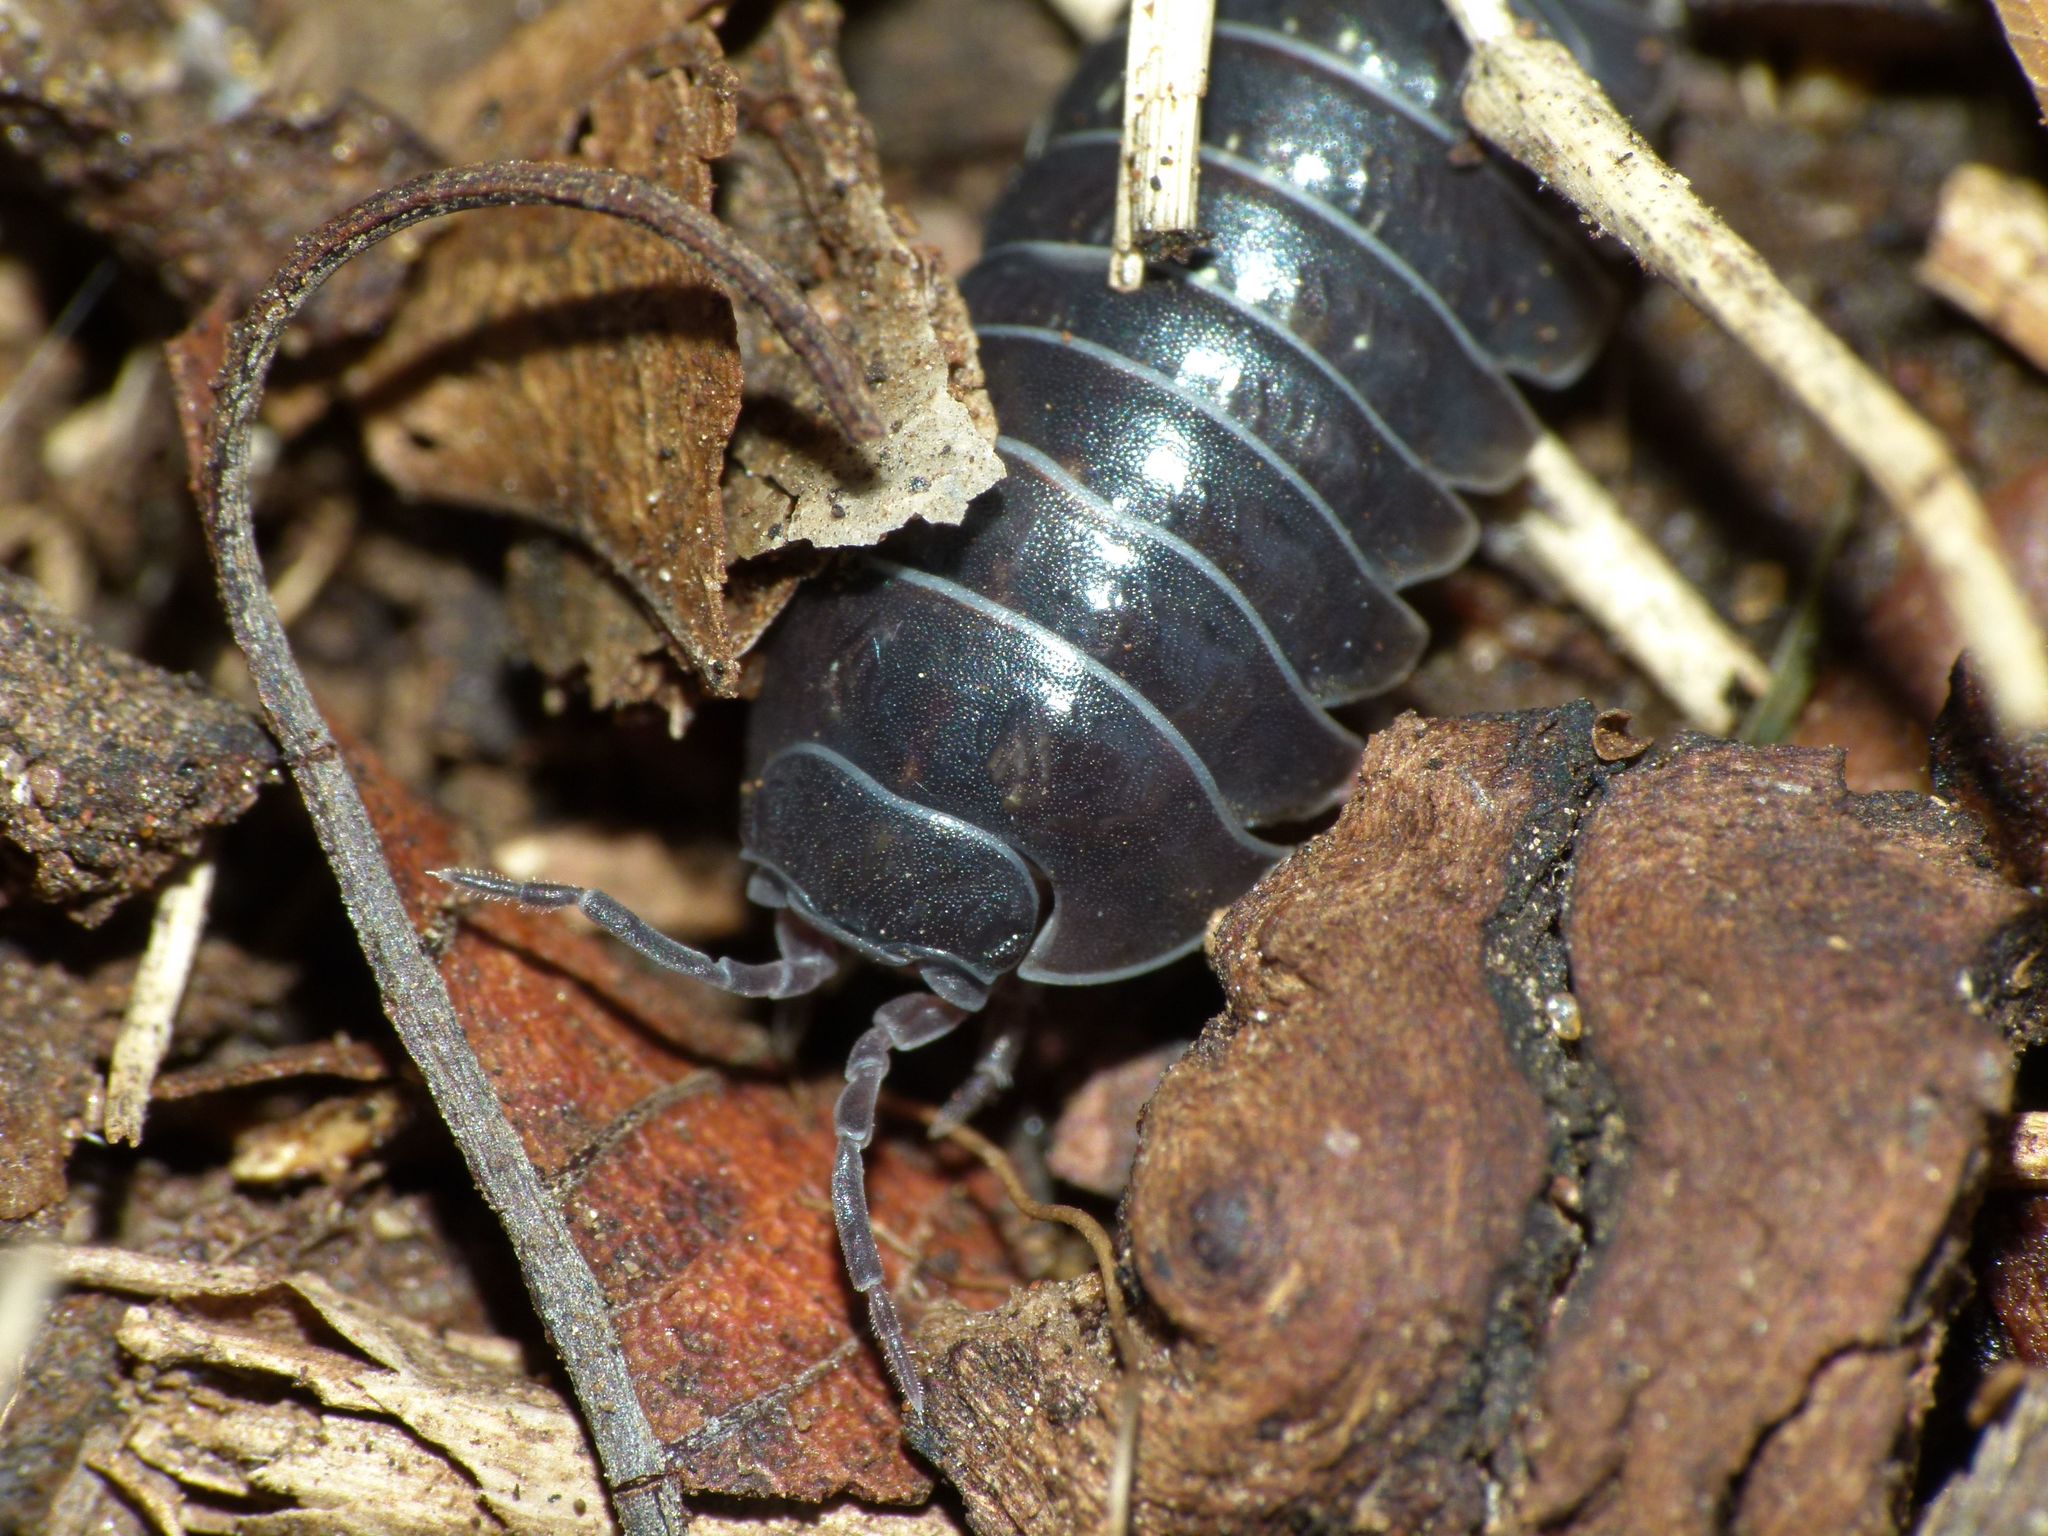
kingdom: Animalia
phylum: Arthropoda
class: Malacostraca
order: Isopoda
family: Armadillidiidae
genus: Armadillidium
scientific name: Armadillidium vulgare
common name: Common pill woodlouse
